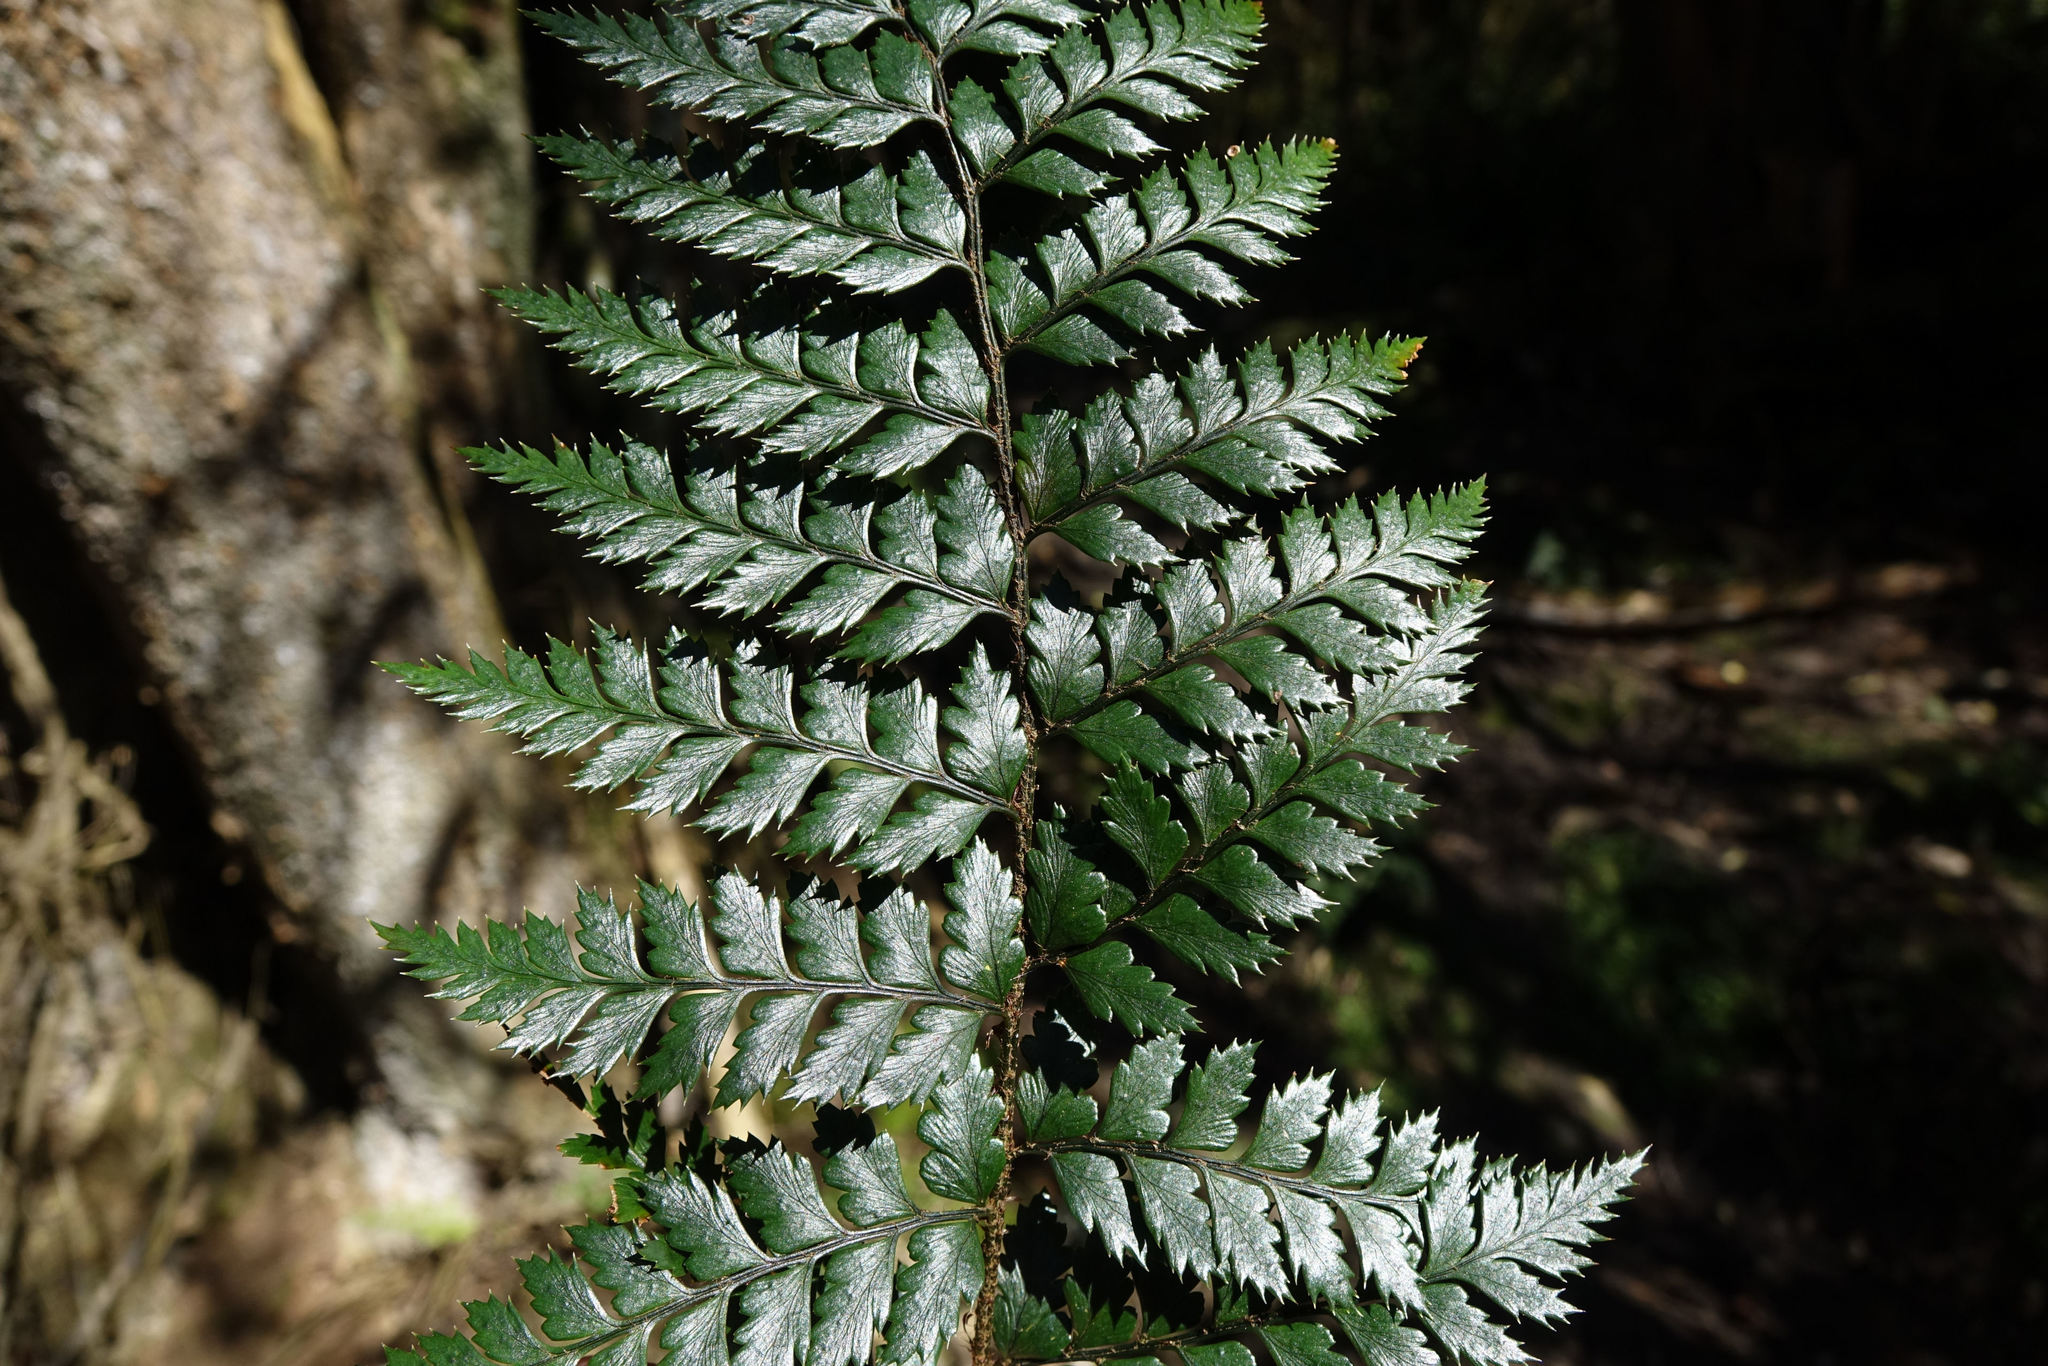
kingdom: Plantae
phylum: Tracheophyta
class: Polypodiopsida
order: Polypodiales
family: Dryopteridaceae
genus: Polystichum
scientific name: Polystichum neozelandicum
